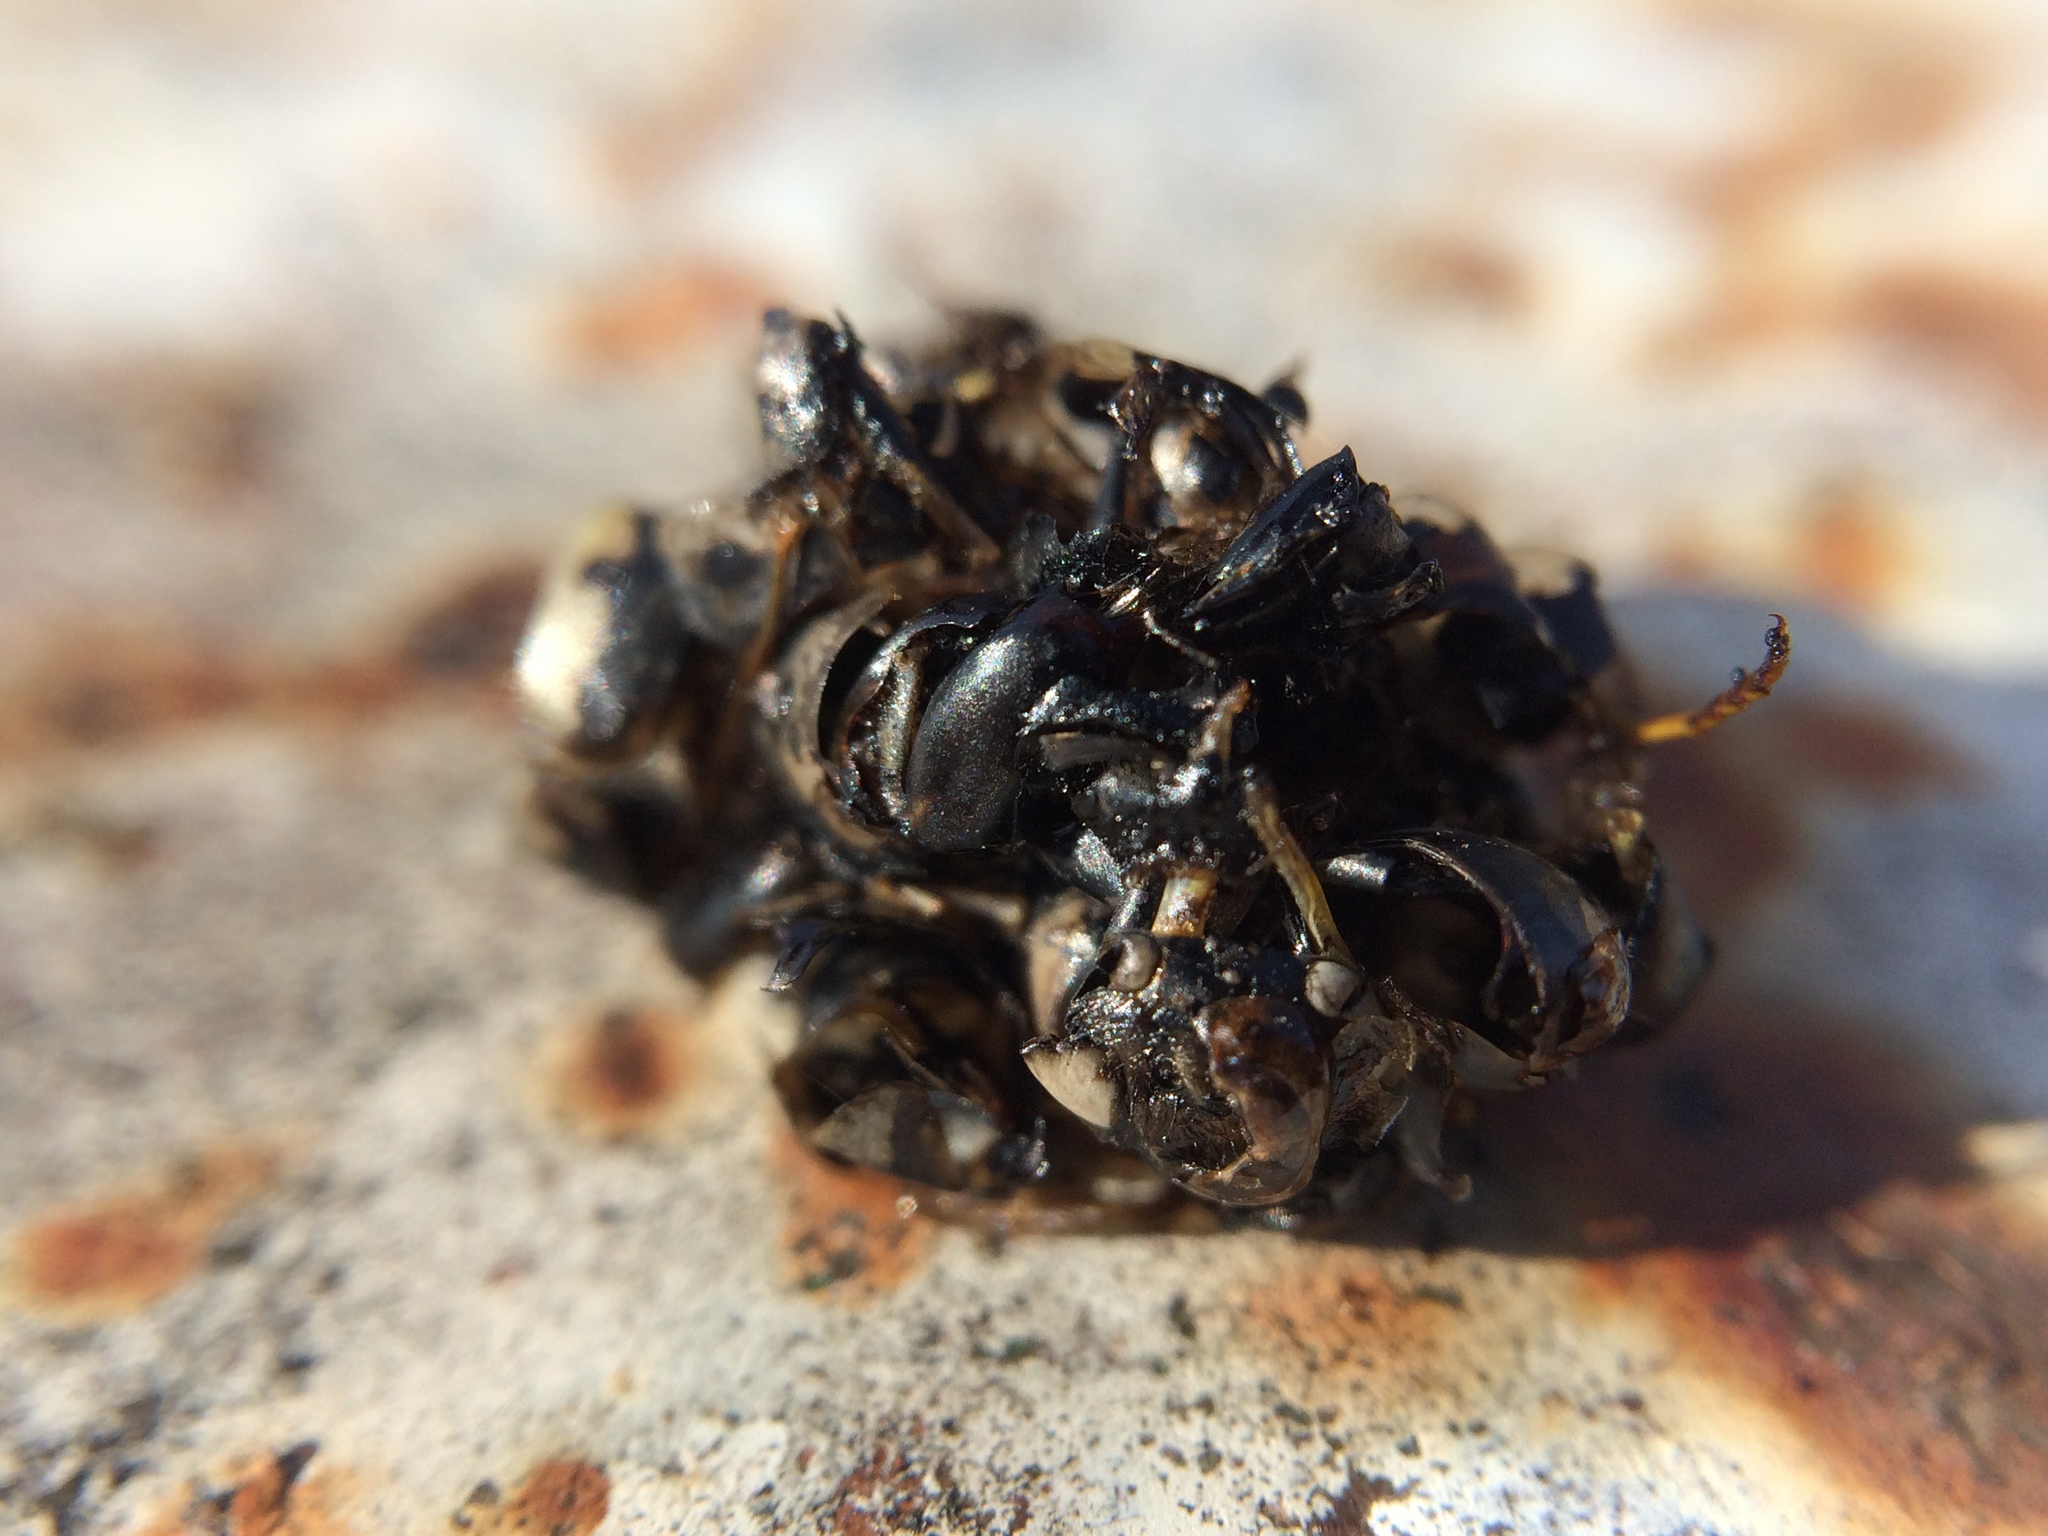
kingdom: Animalia
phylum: Arthropoda
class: Insecta
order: Hymenoptera
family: Vespidae
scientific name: Vespidae
